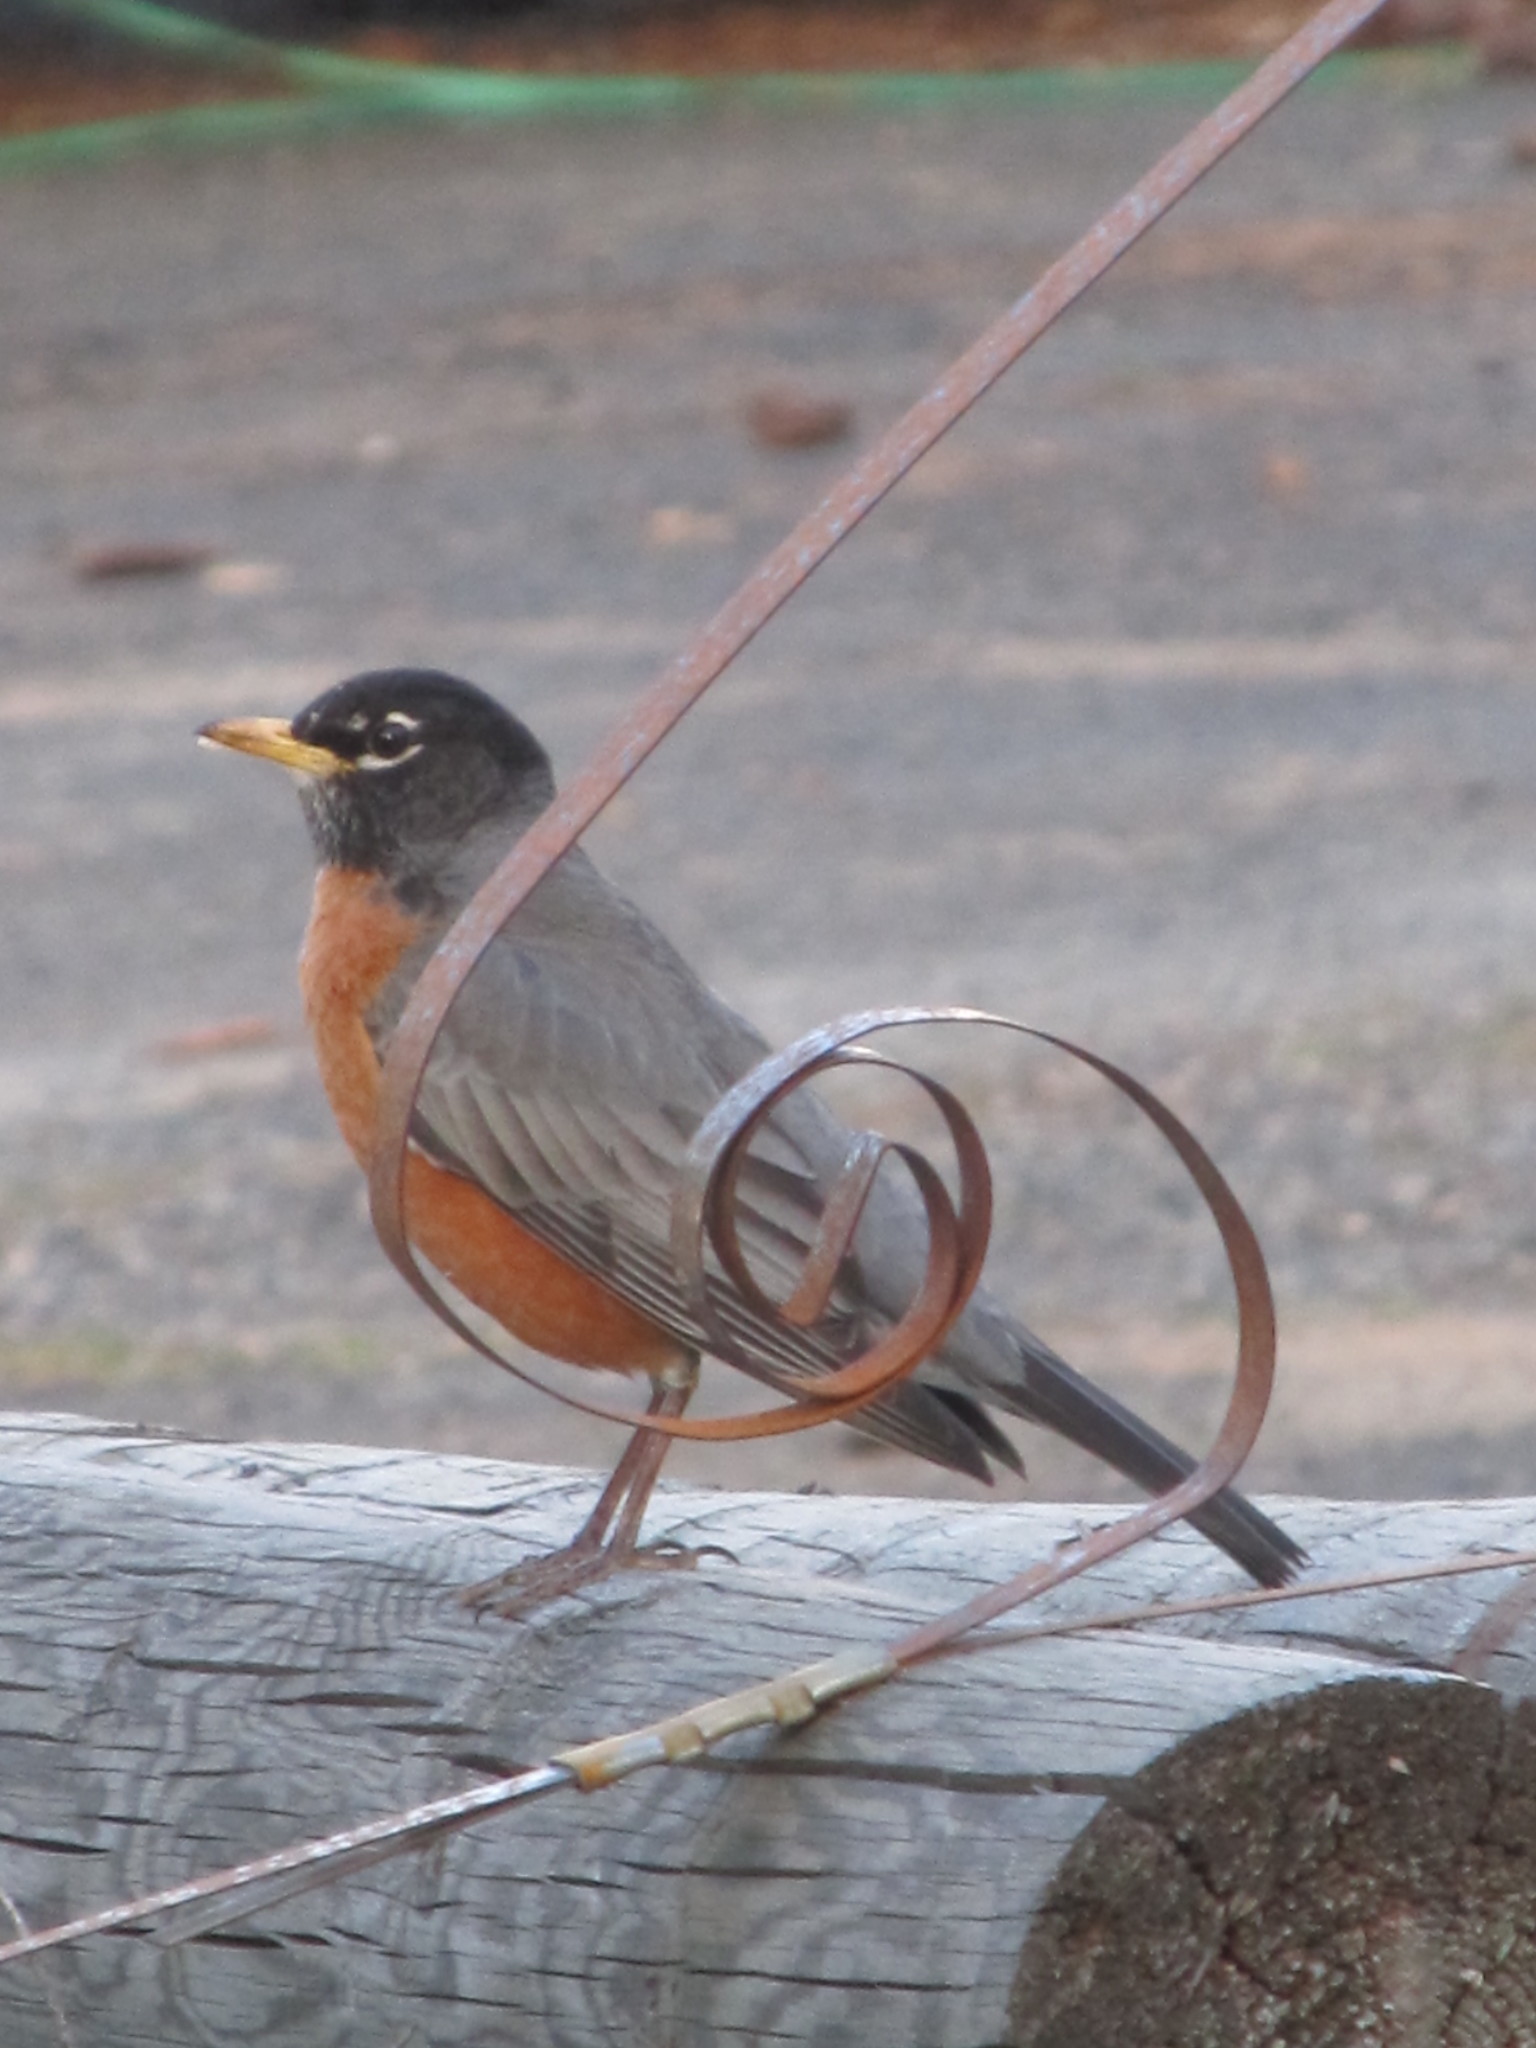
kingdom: Animalia
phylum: Chordata
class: Aves
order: Passeriformes
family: Turdidae
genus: Turdus
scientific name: Turdus migratorius
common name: American robin
